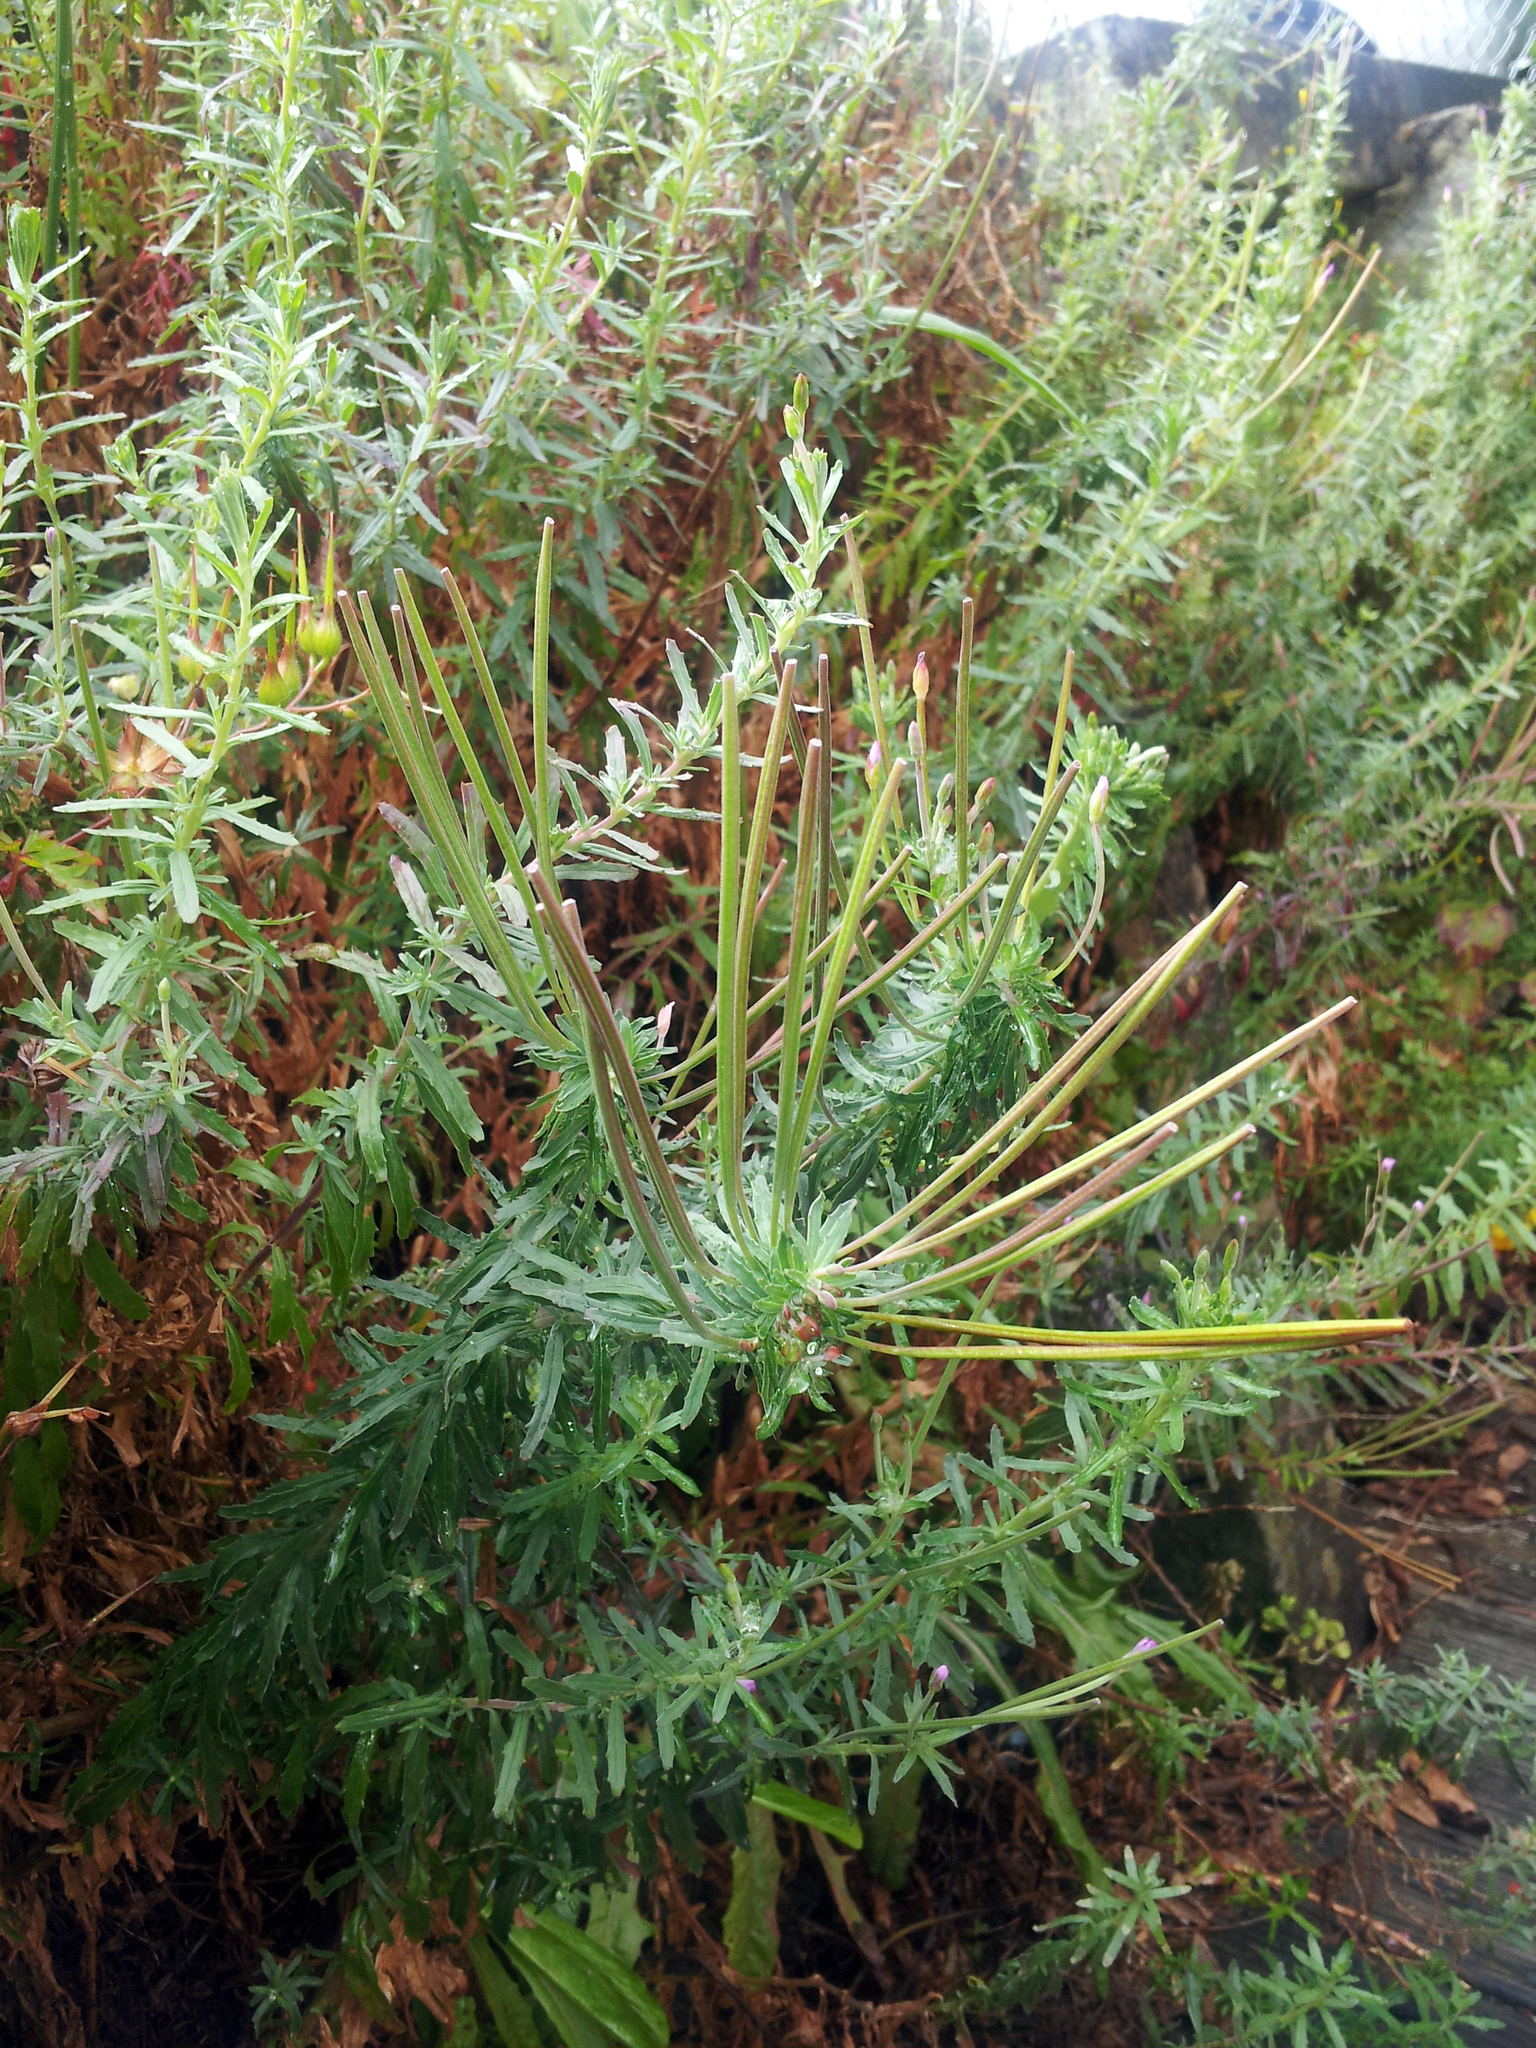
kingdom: Plantae
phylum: Tracheophyta
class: Magnoliopsida
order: Myrtales
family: Onagraceae
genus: Epilobium
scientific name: Epilobium billardierianum
